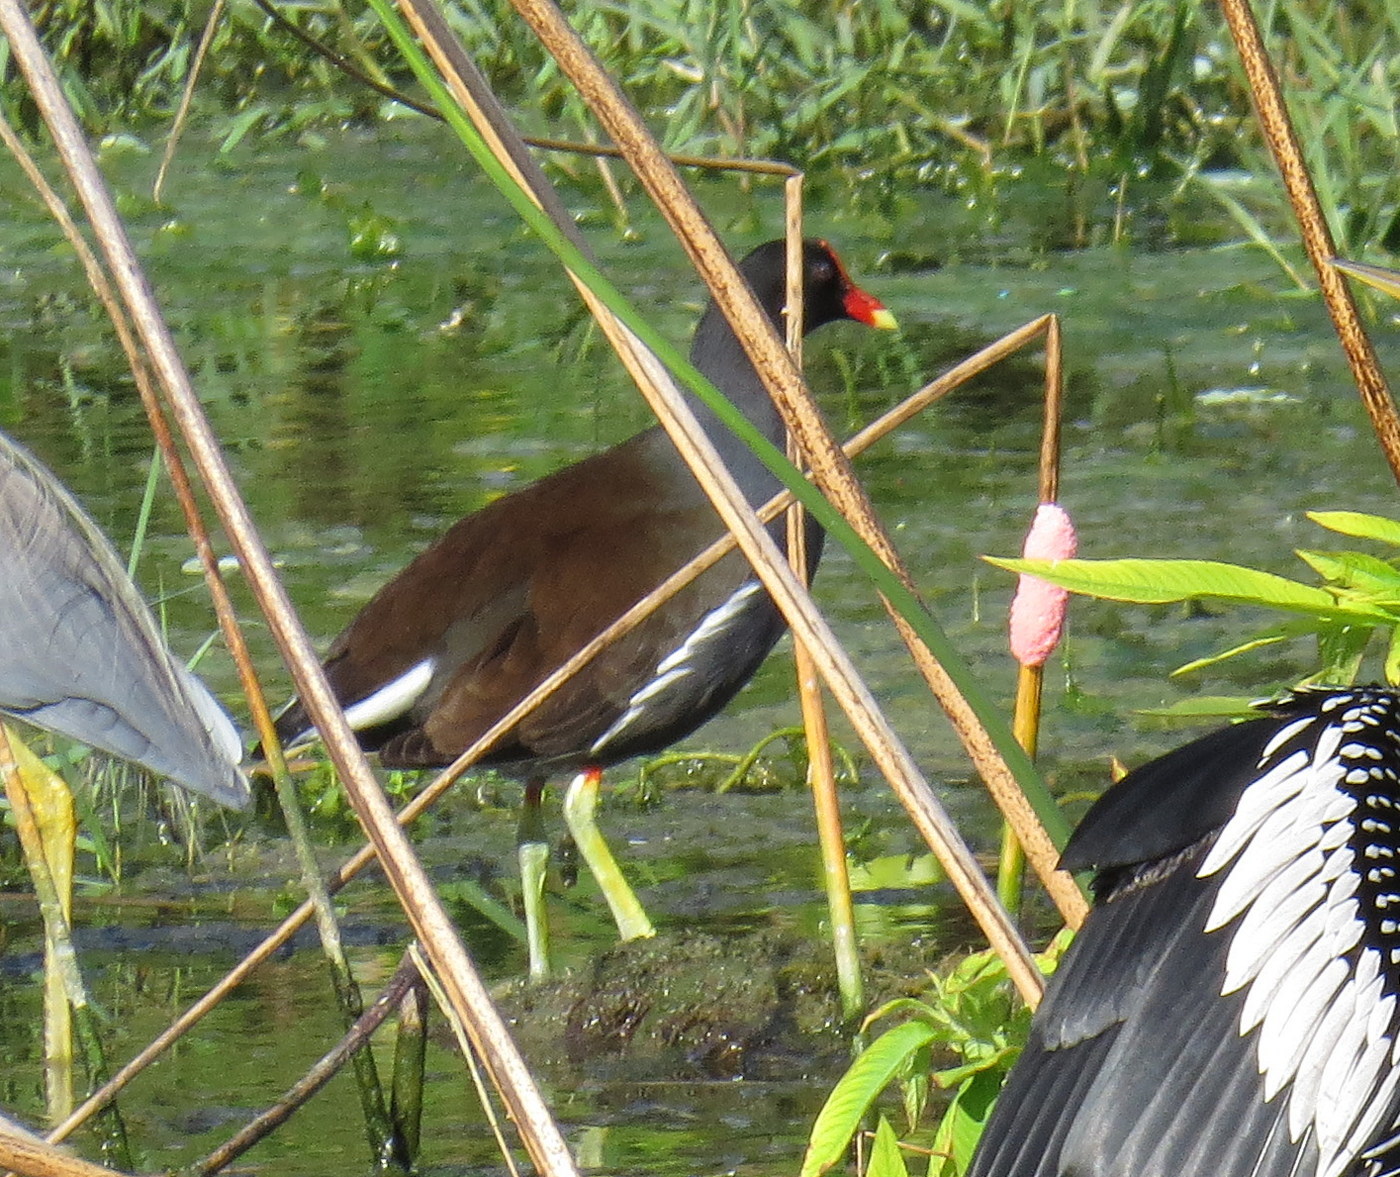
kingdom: Animalia
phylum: Chordata
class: Aves
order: Gruiformes
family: Rallidae
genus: Gallinula
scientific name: Gallinula chloropus
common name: Common moorhen
